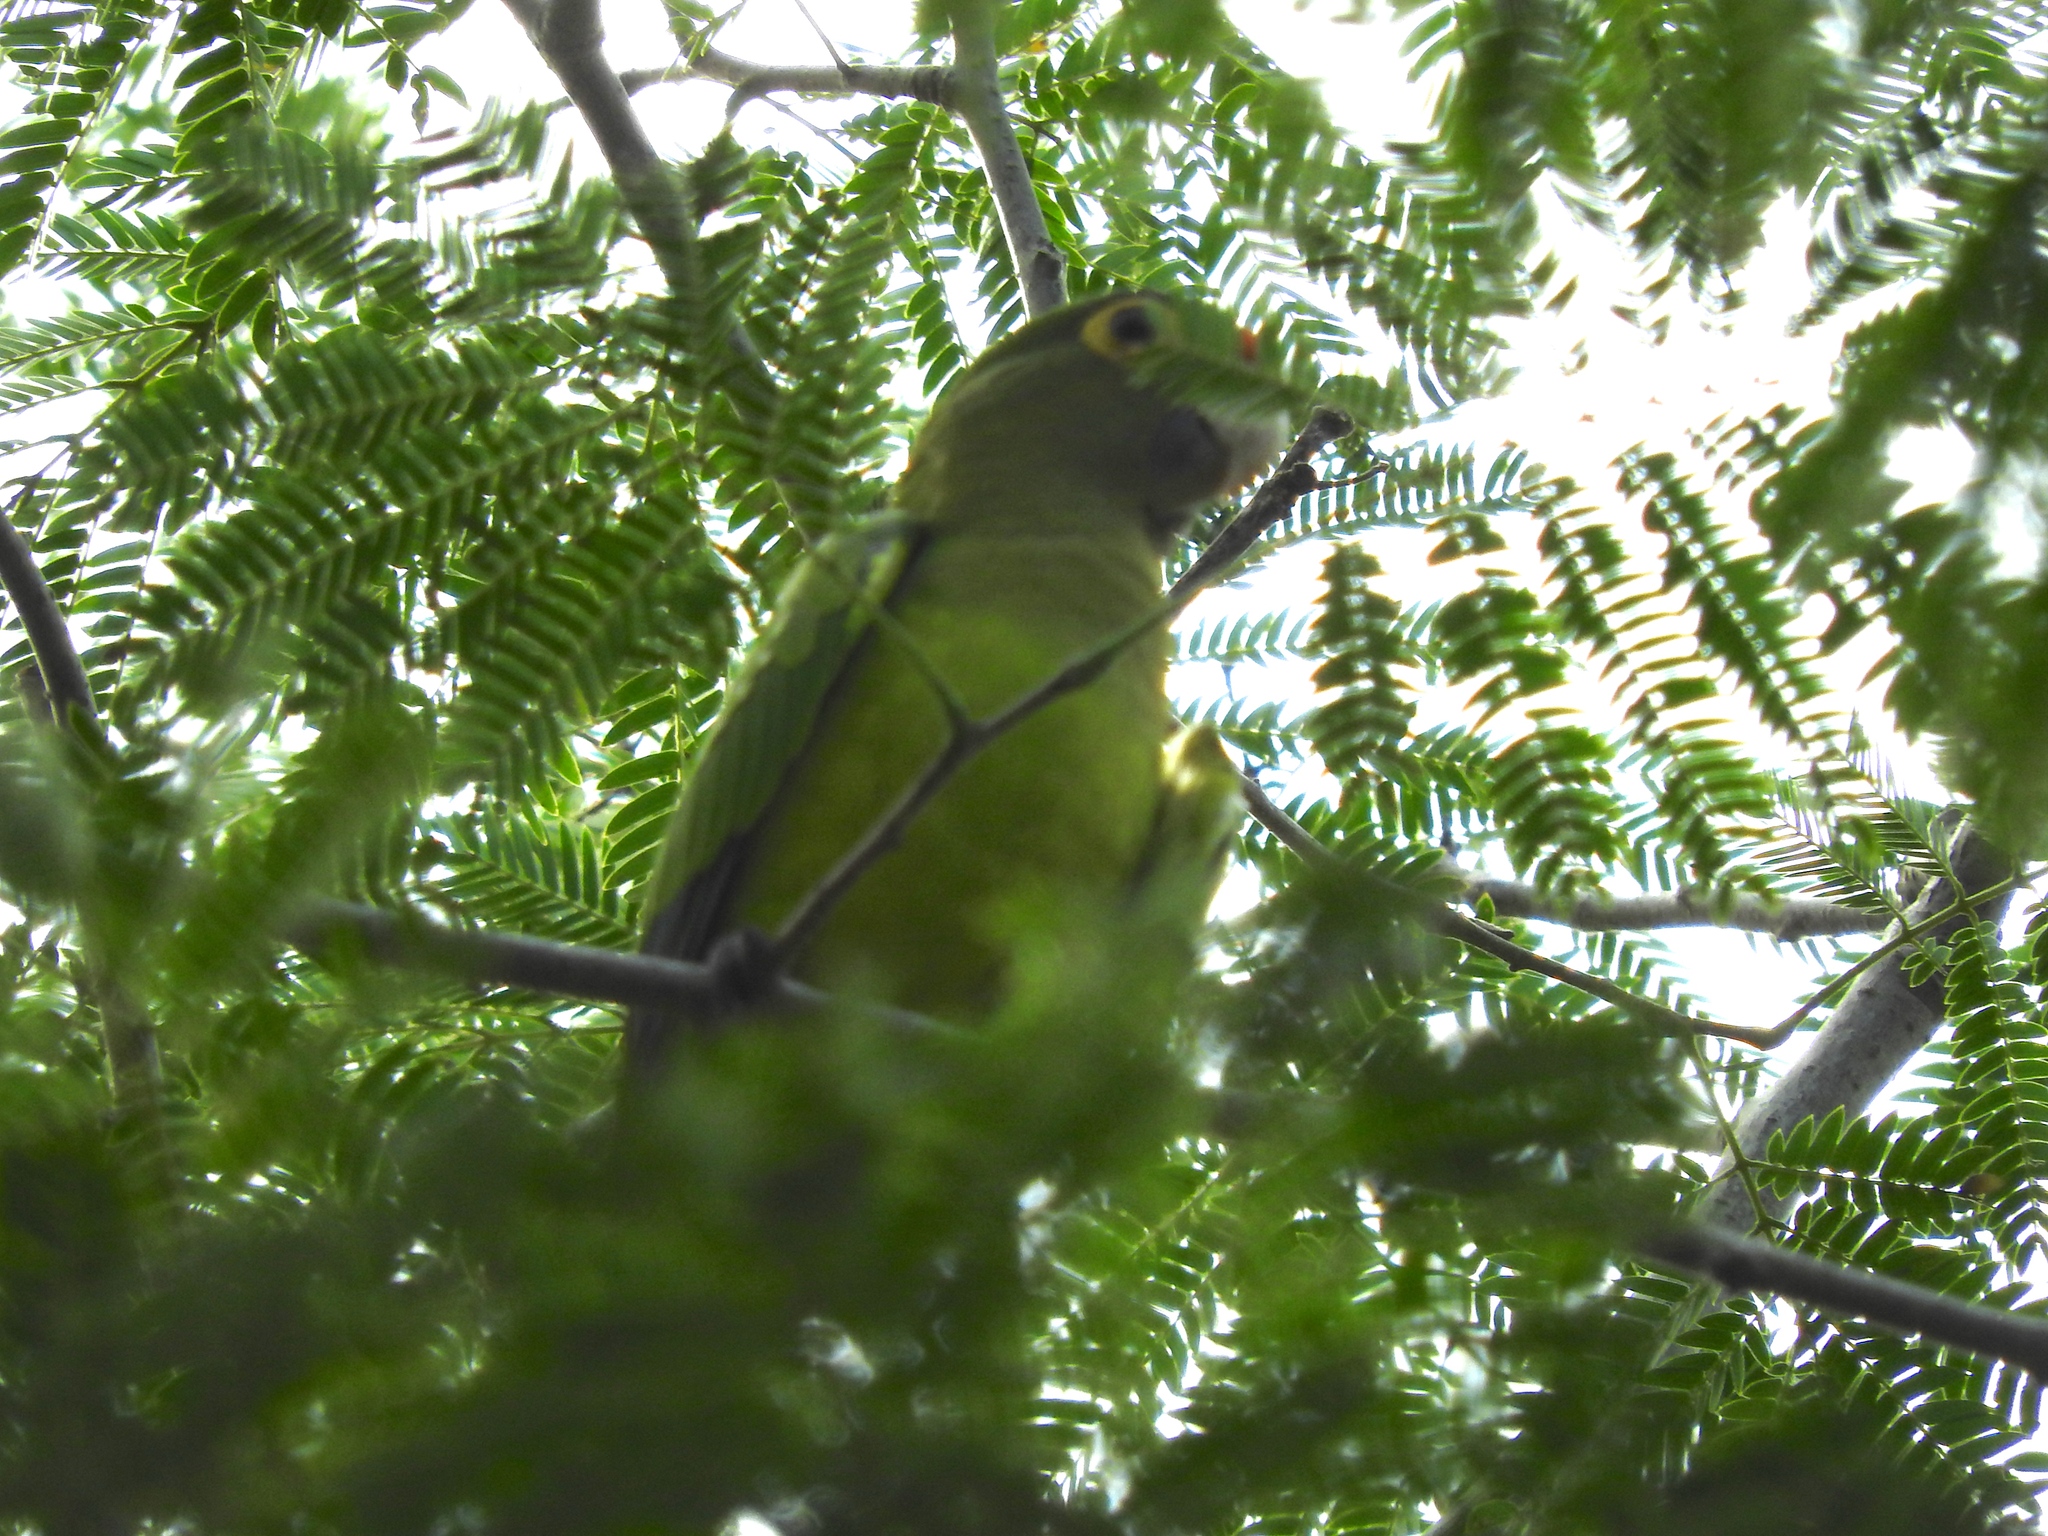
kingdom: Animalia
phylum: Chordata
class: Aves
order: Psittaciformes
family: Psittacidae
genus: Aratinga
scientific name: Aratinga canicularis
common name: Orange-fronted parakeet
